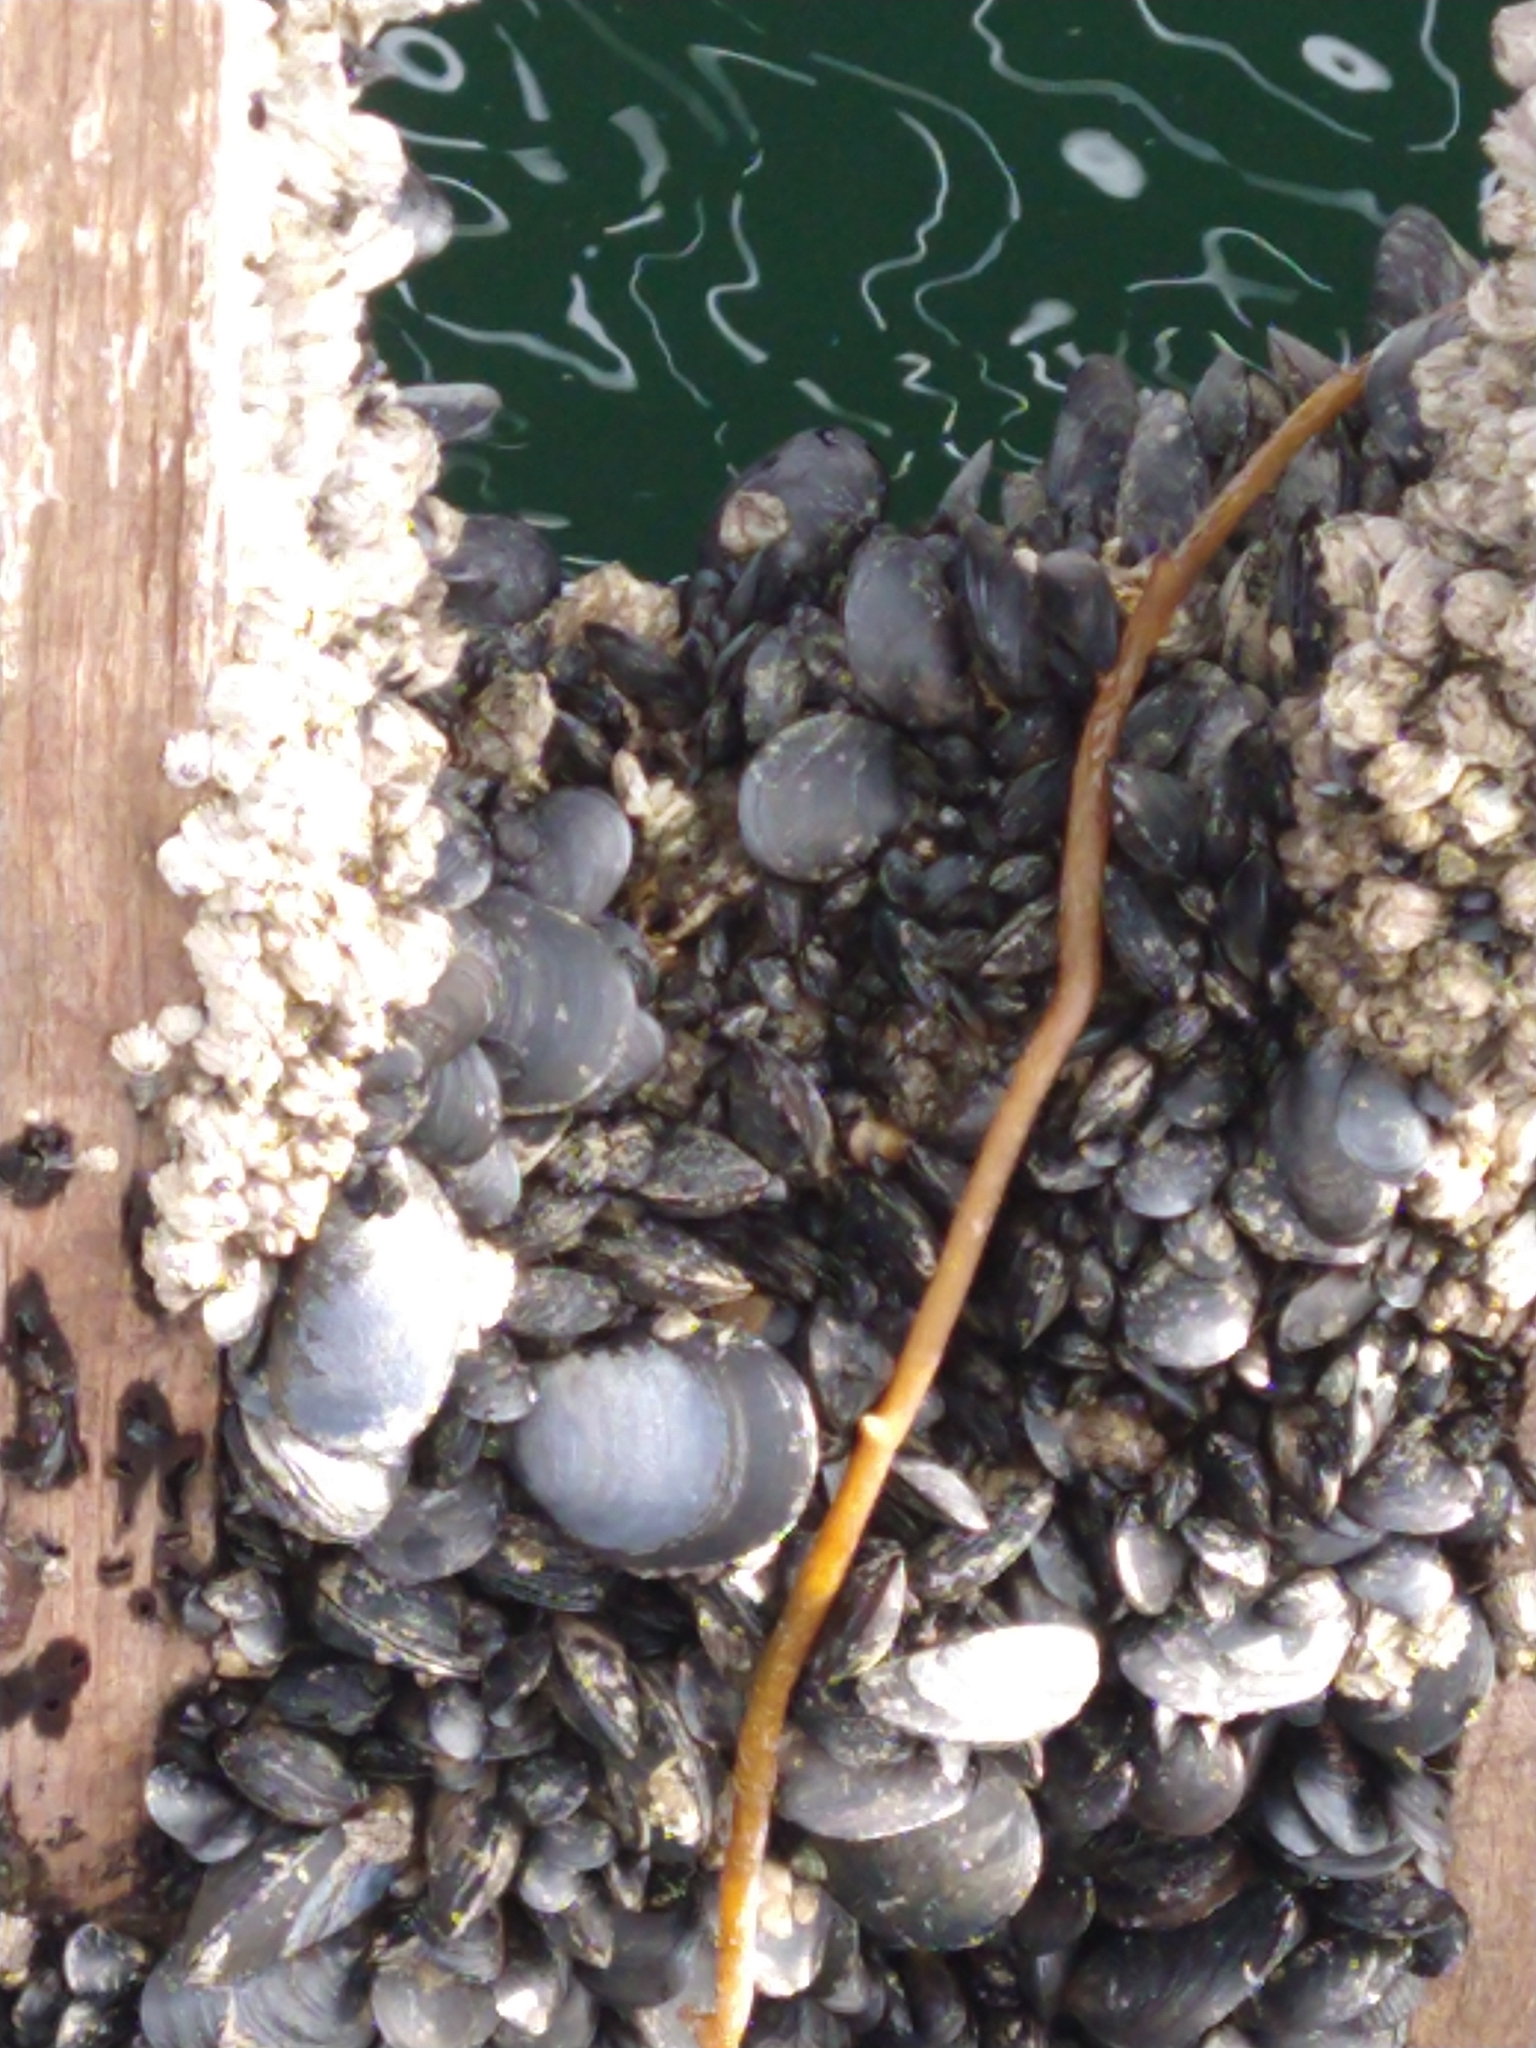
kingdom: Animalia
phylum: Mollusca
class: Bivalvia
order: Mytilida
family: Mytilidae
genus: Mytilus
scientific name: Mytilus chilensis
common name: Chilean mussel
